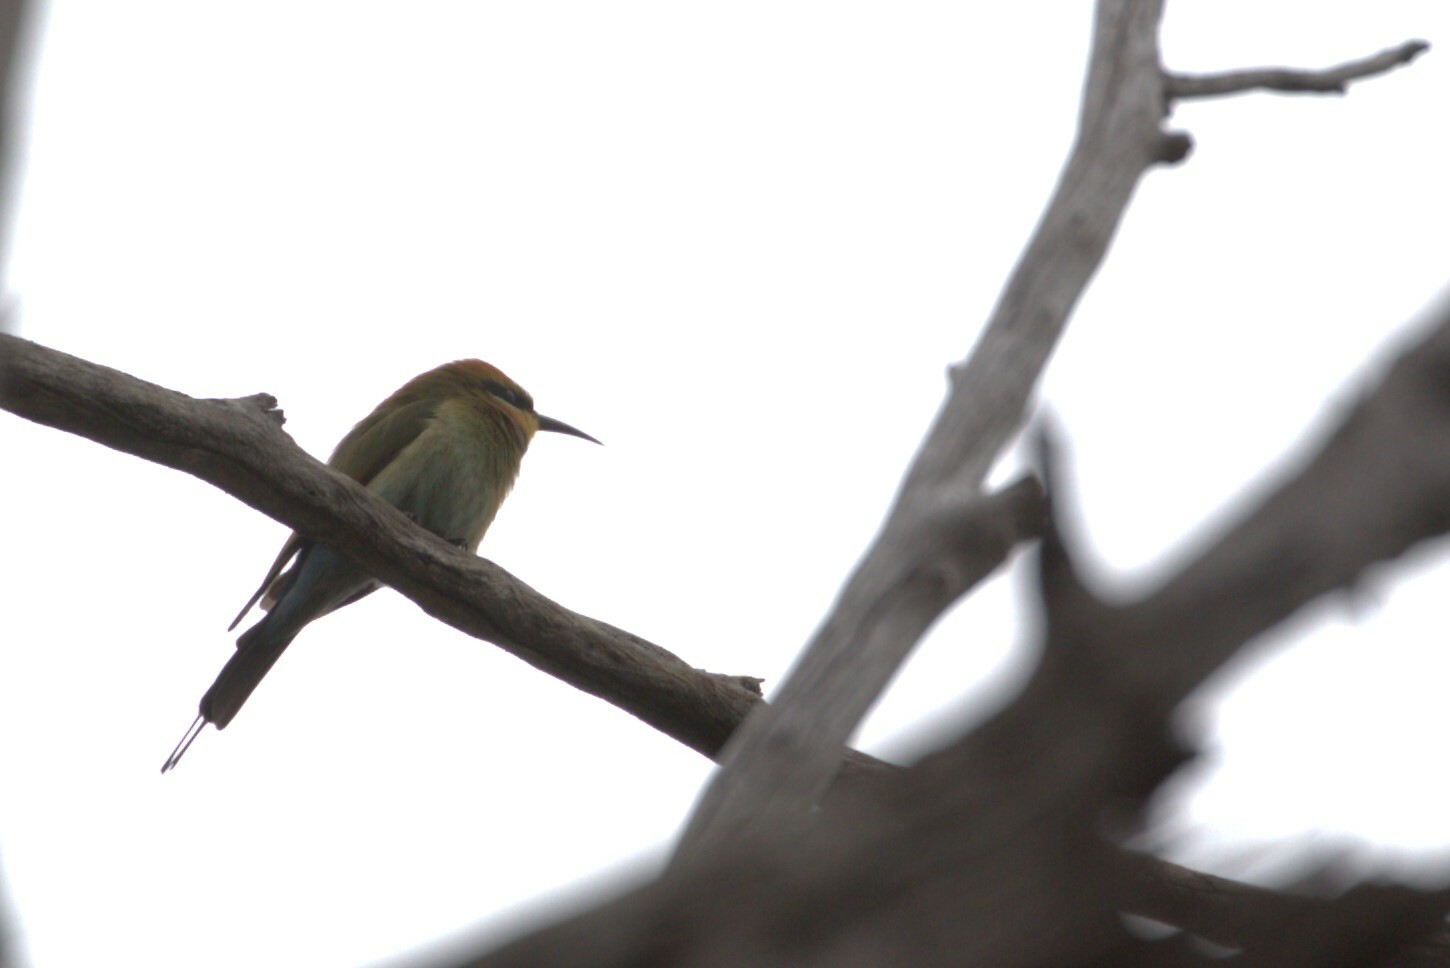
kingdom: Animalia
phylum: Chordata
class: Aves
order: Coraciiformes
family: Meropidae
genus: Merops
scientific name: Merops ornatus
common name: Rainbow bee-eater
